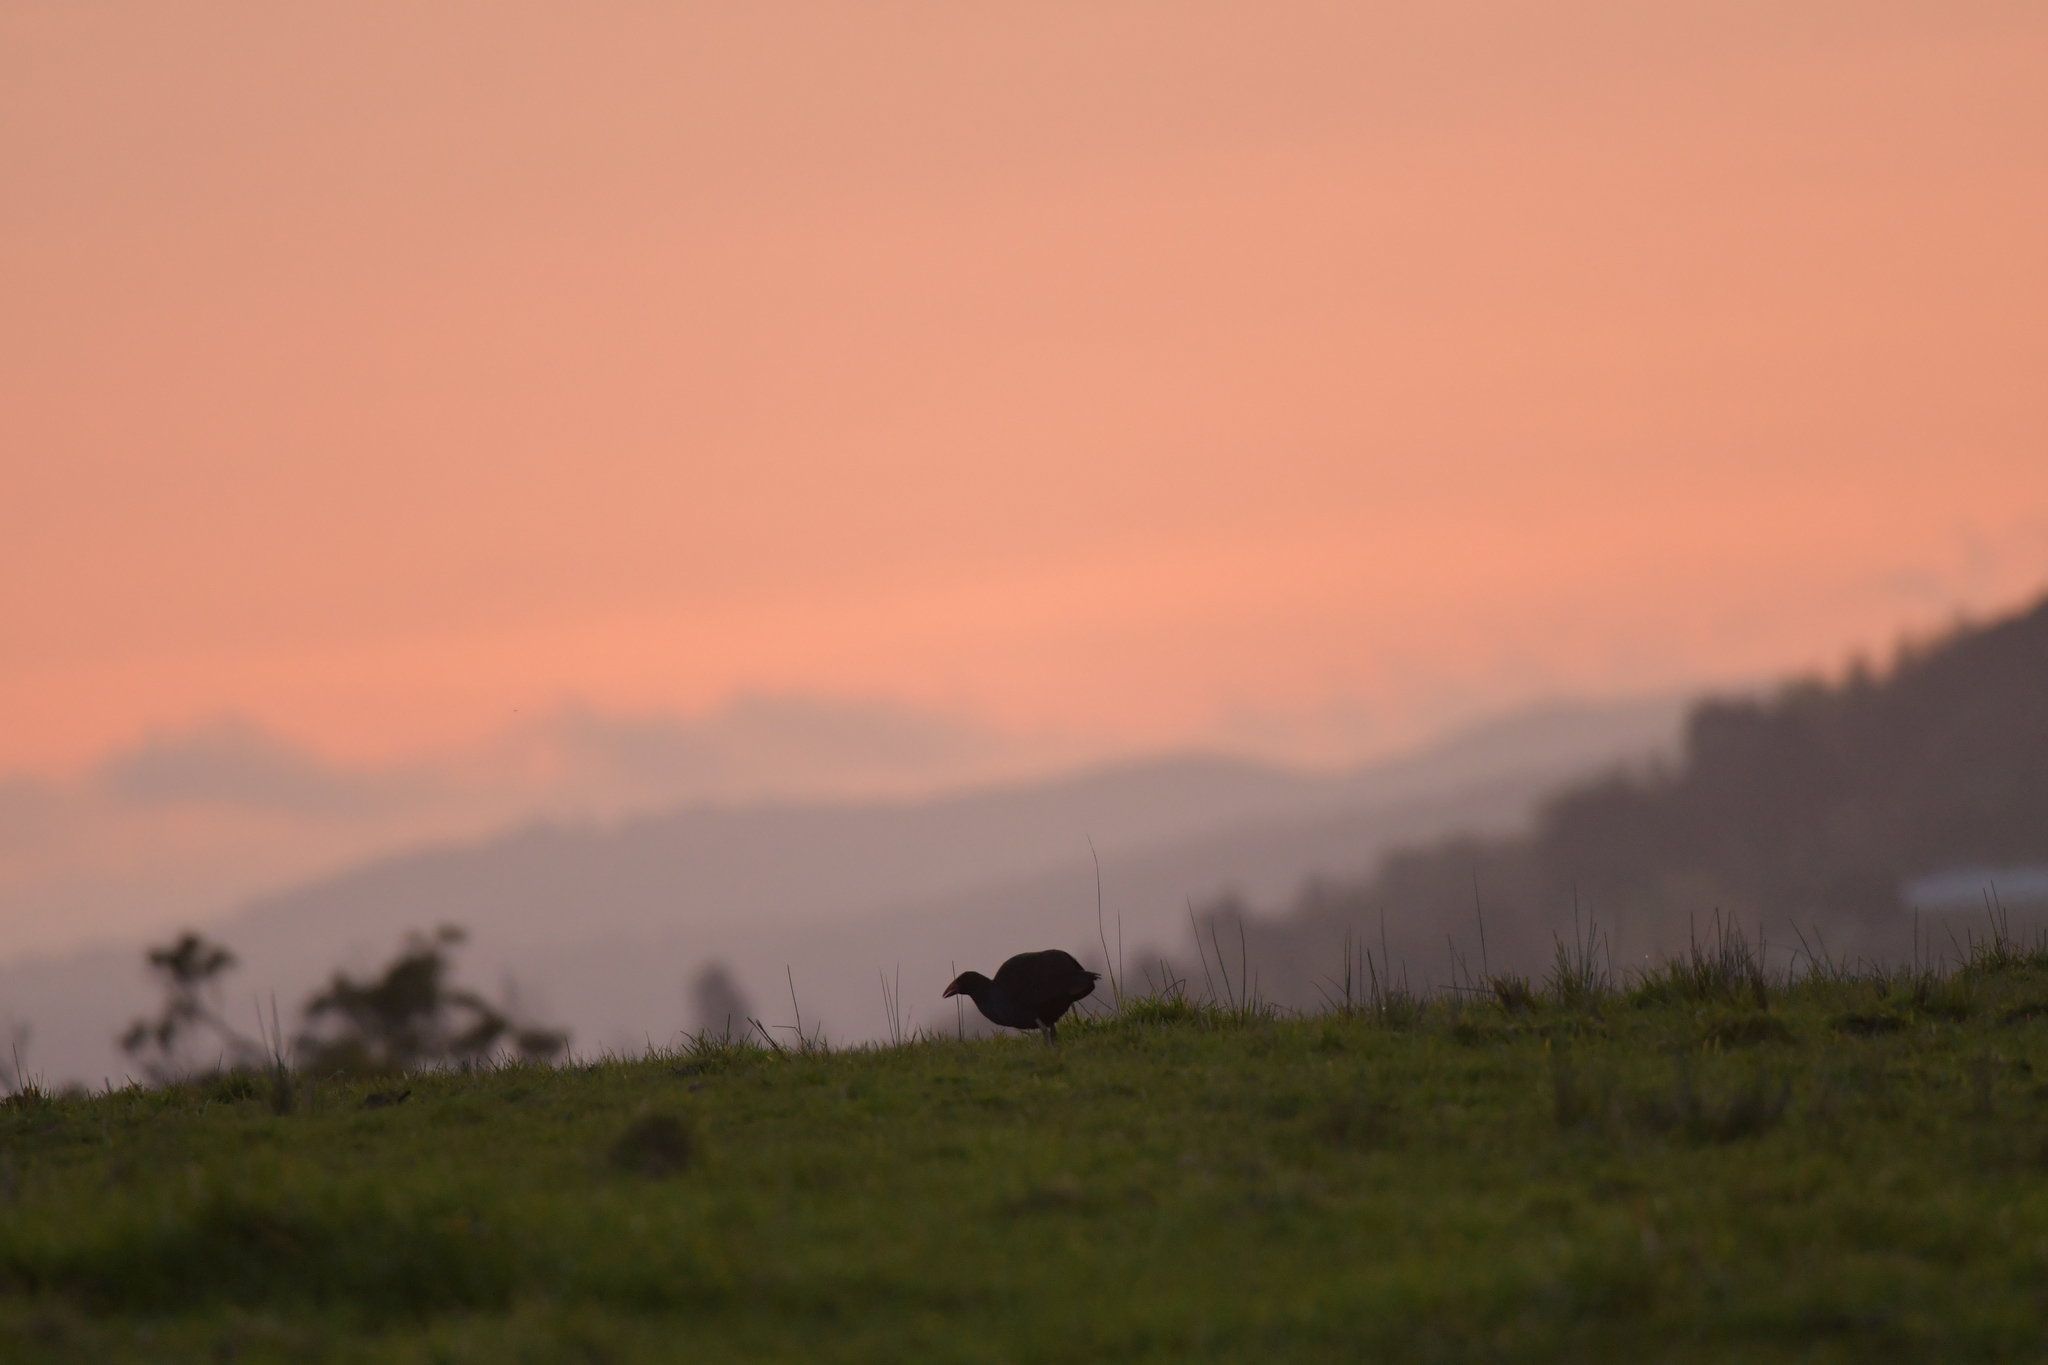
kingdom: Animalia
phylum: Chordata
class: Aves
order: Gruiformes
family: Rallidae
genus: Porphyrio
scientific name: Porphyrio melanotus
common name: Australasian swamphen
